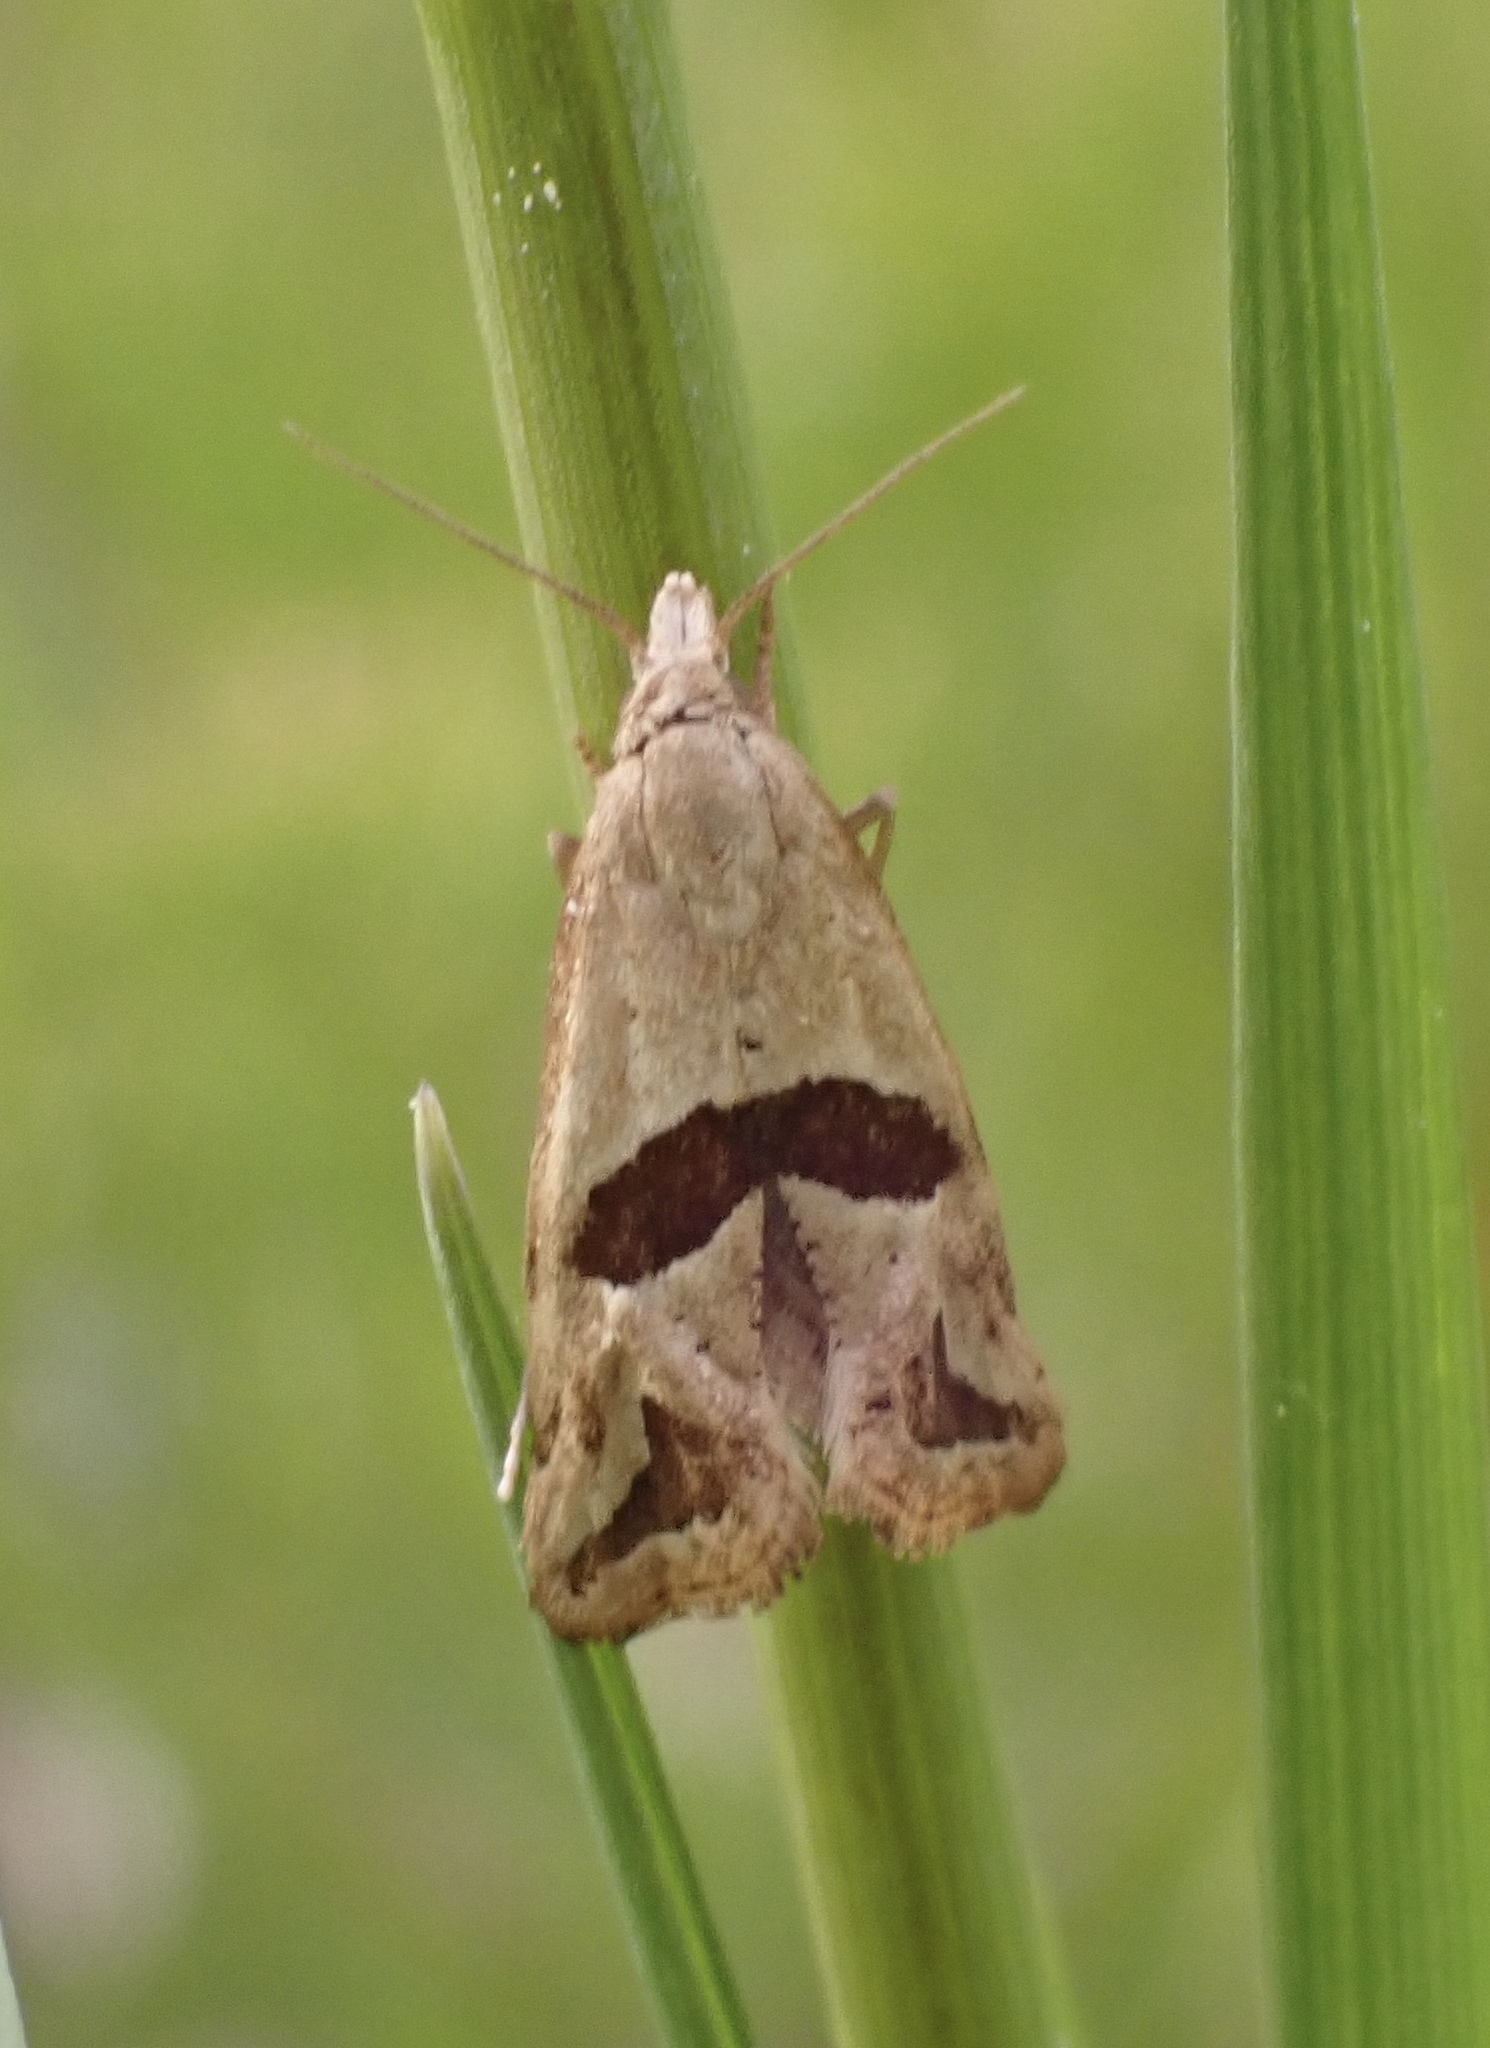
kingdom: Animalia
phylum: Arthropoda
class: Insecta
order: Lepidoptera
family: Tortricidae
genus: Eugnosta
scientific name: Eugnosta sartana
